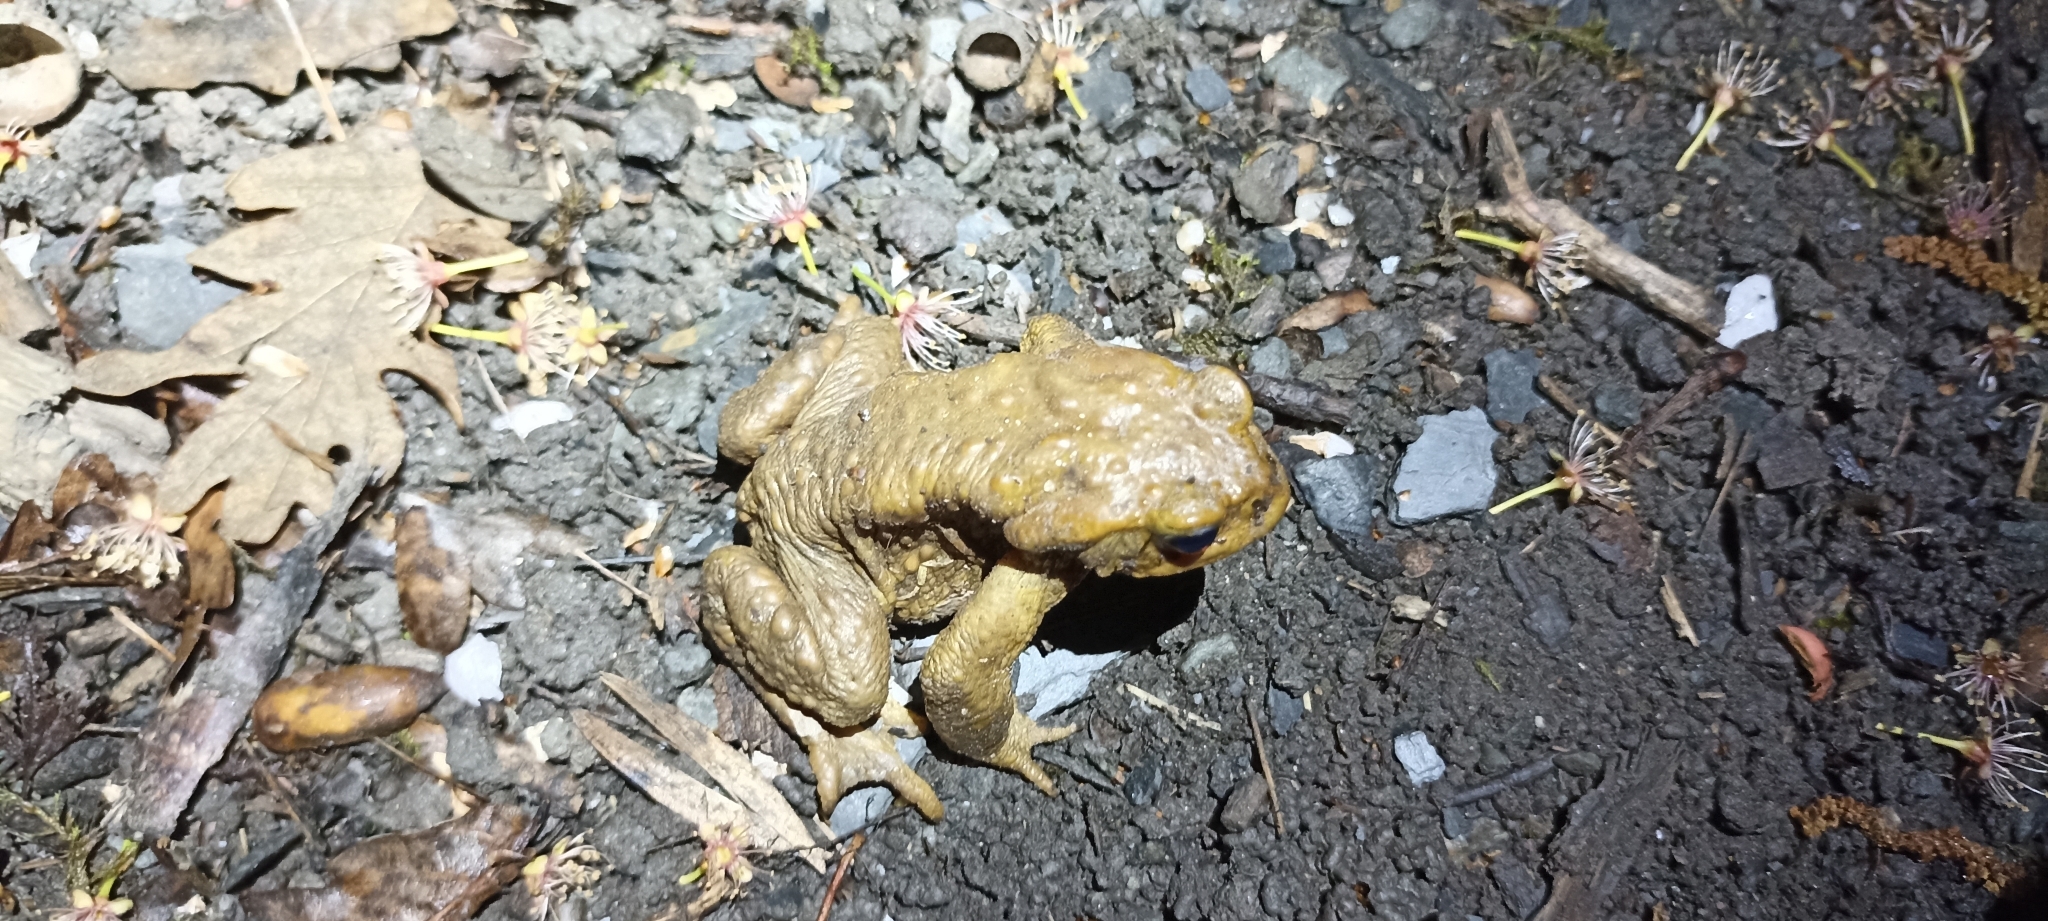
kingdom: Animalia
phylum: Chordata
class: Amphibia
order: Anura
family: Bufonidae
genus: Bufo
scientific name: Bufo spinosus
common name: Western common toad
